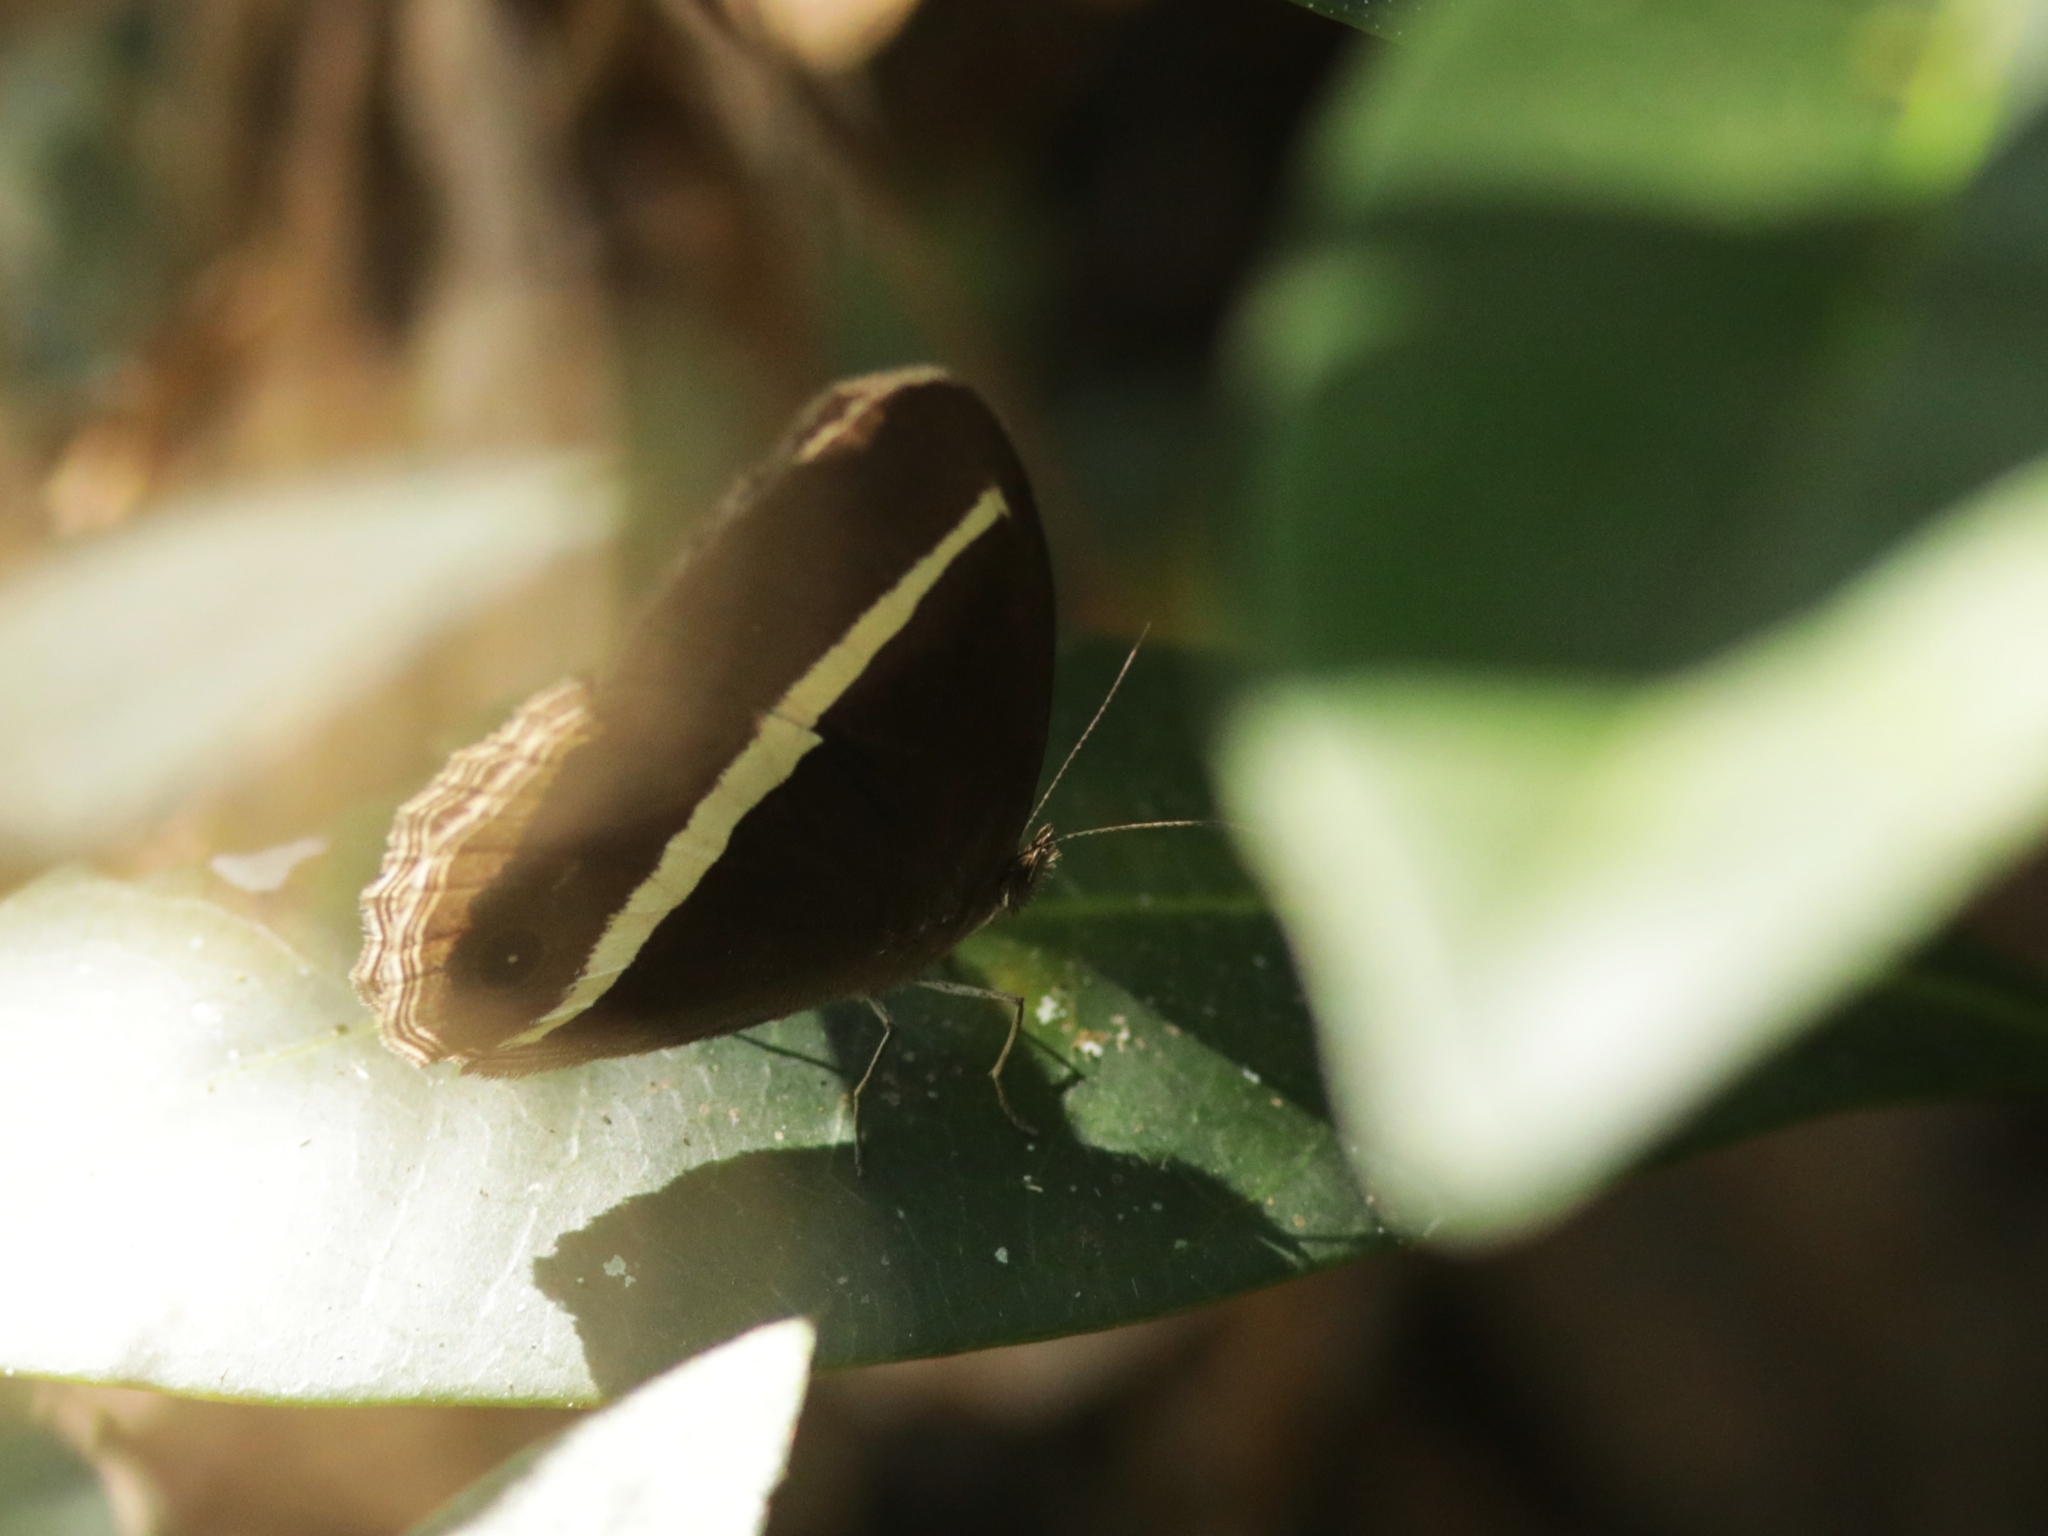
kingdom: Animalia
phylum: Arthropoda
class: Insecta
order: Lepidoptera
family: Nymphalidae
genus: Orsotriaena
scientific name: Orsotriaena medus
